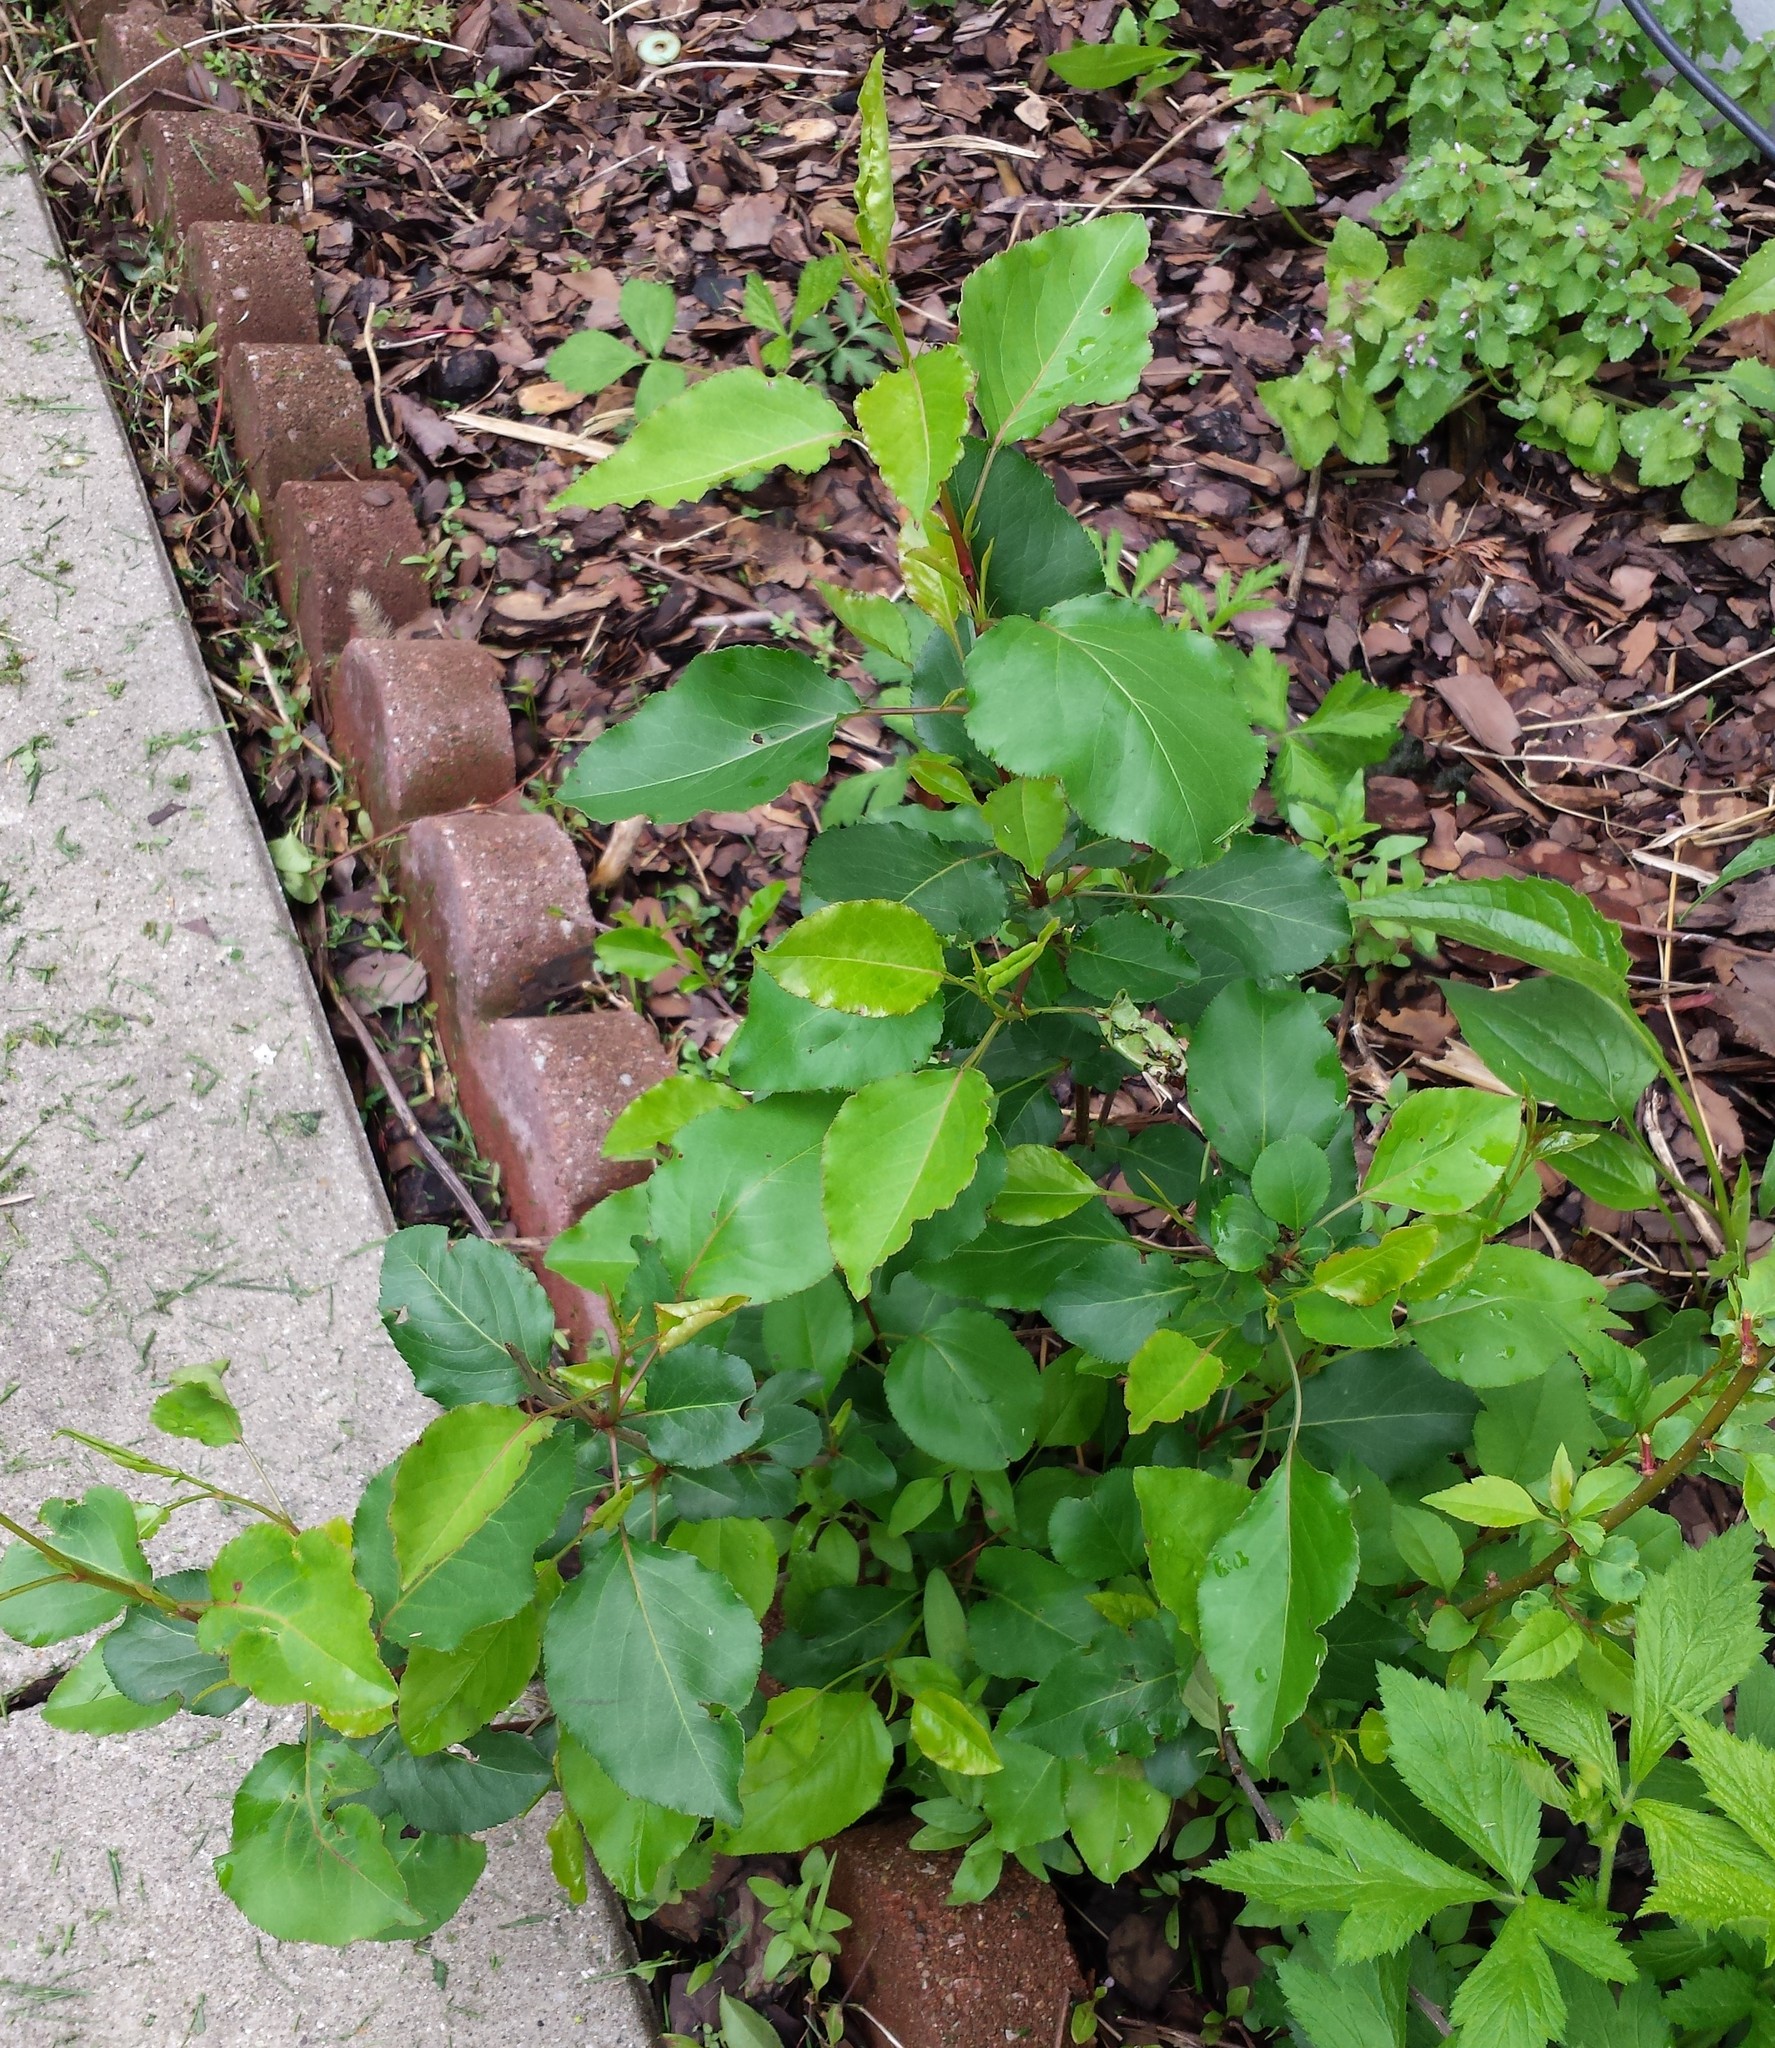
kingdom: Plantae
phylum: Tracheophyta
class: Magnoliopsida
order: Rosales
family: Rosaceae
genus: Pyrus
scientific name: Pyrus calleryana
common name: Callery pear
